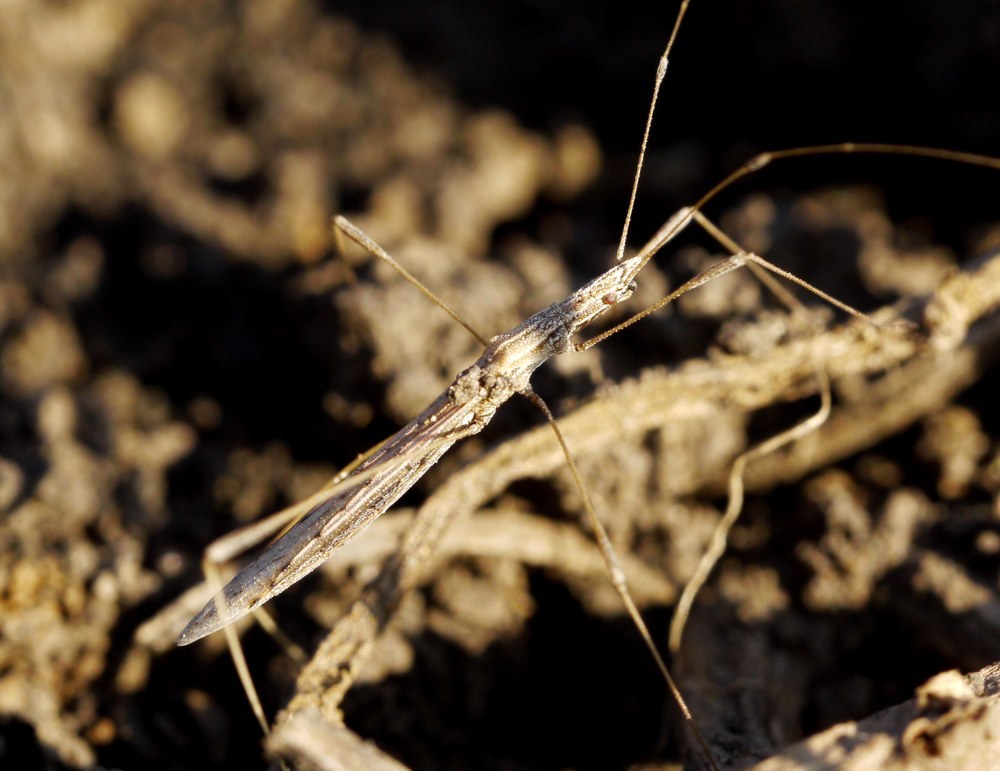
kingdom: Animalia
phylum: Arthropoda
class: Insecta
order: Hemiptera
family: Berytidae
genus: Neides
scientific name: Neides tipularius
